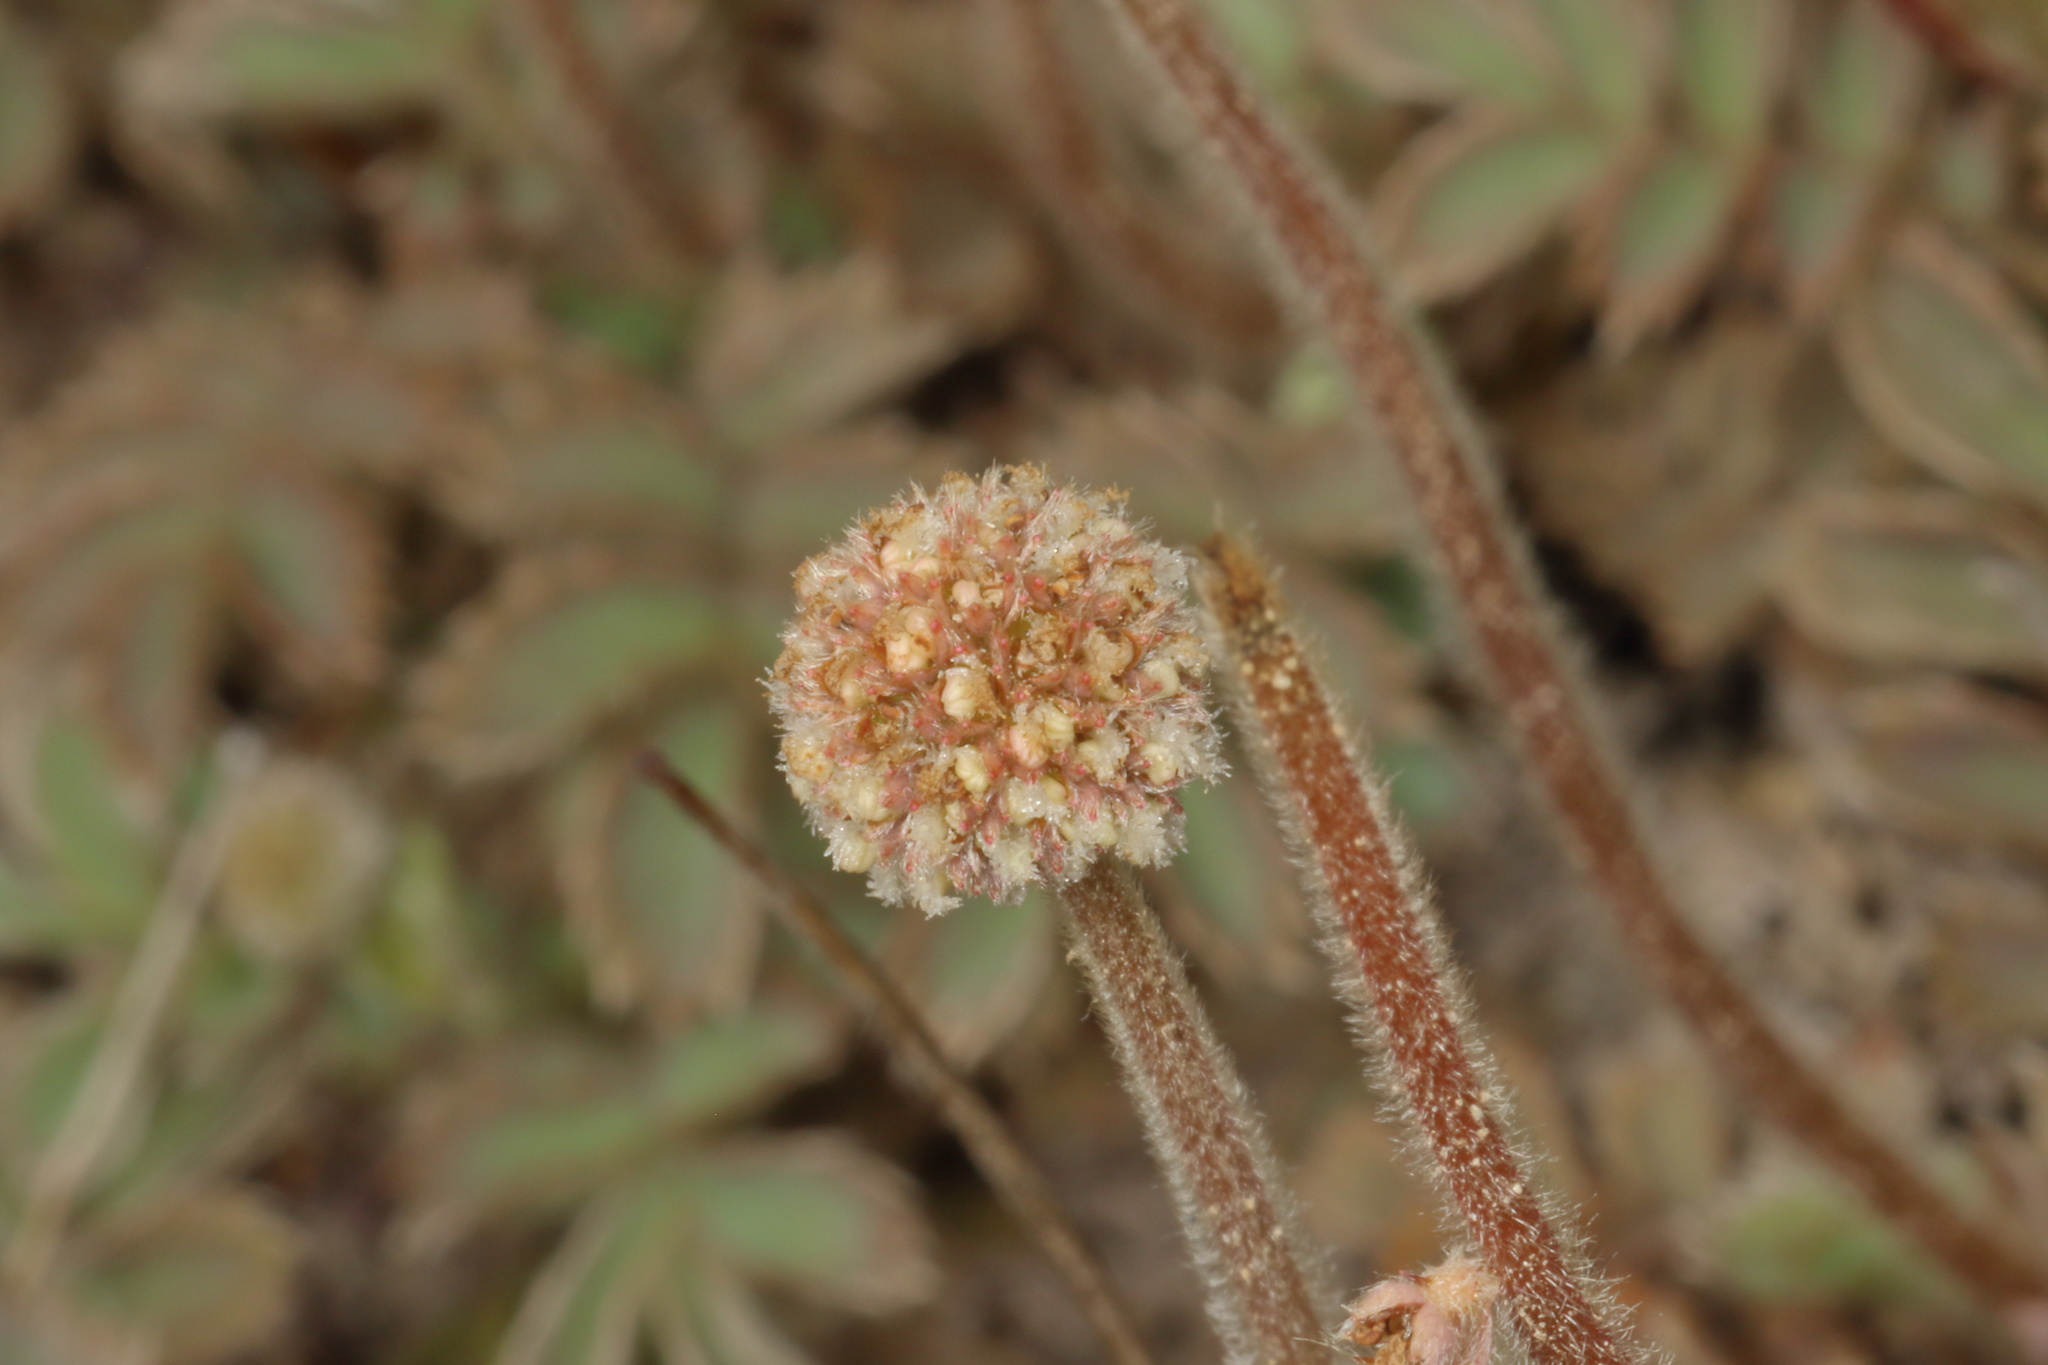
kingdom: Plantae
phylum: Tracheophyta
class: Magnoliopsida
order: Rosales
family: Rosaceae
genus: Acaena
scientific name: Acaena caesiiglauca
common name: Glaucous pirri-pirri-bur
